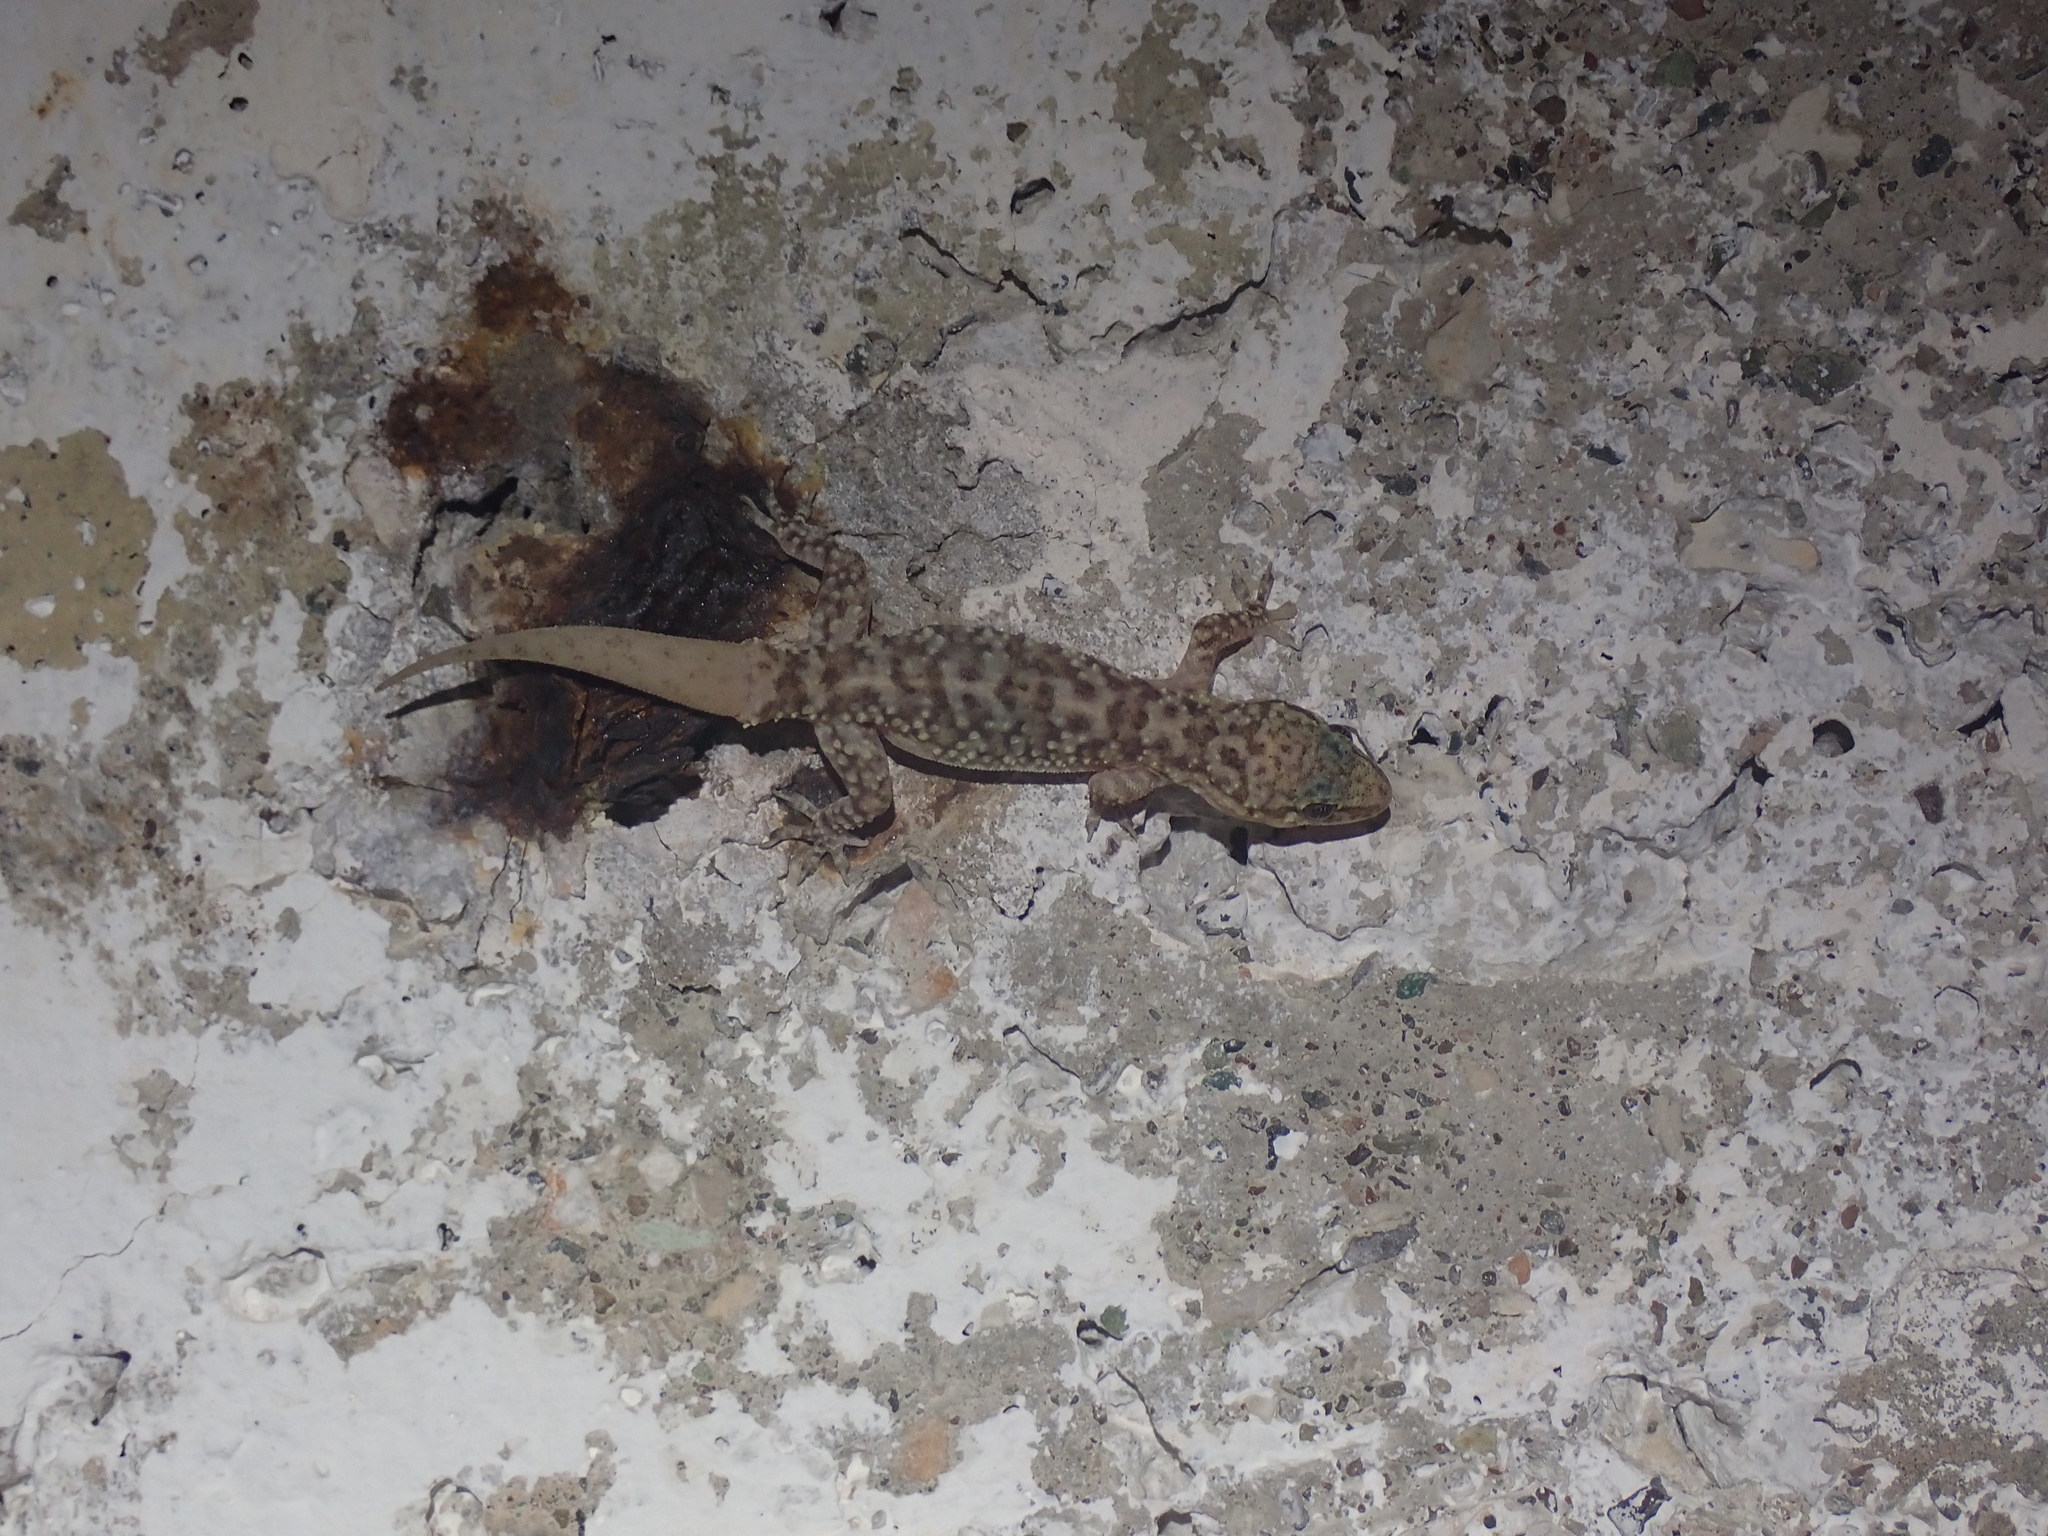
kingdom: Animalia
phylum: Chordata
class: Squamata
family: Gekkonidae
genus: Hemidactylus
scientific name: Hemidactylus turcicus
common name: Turkish gecko
